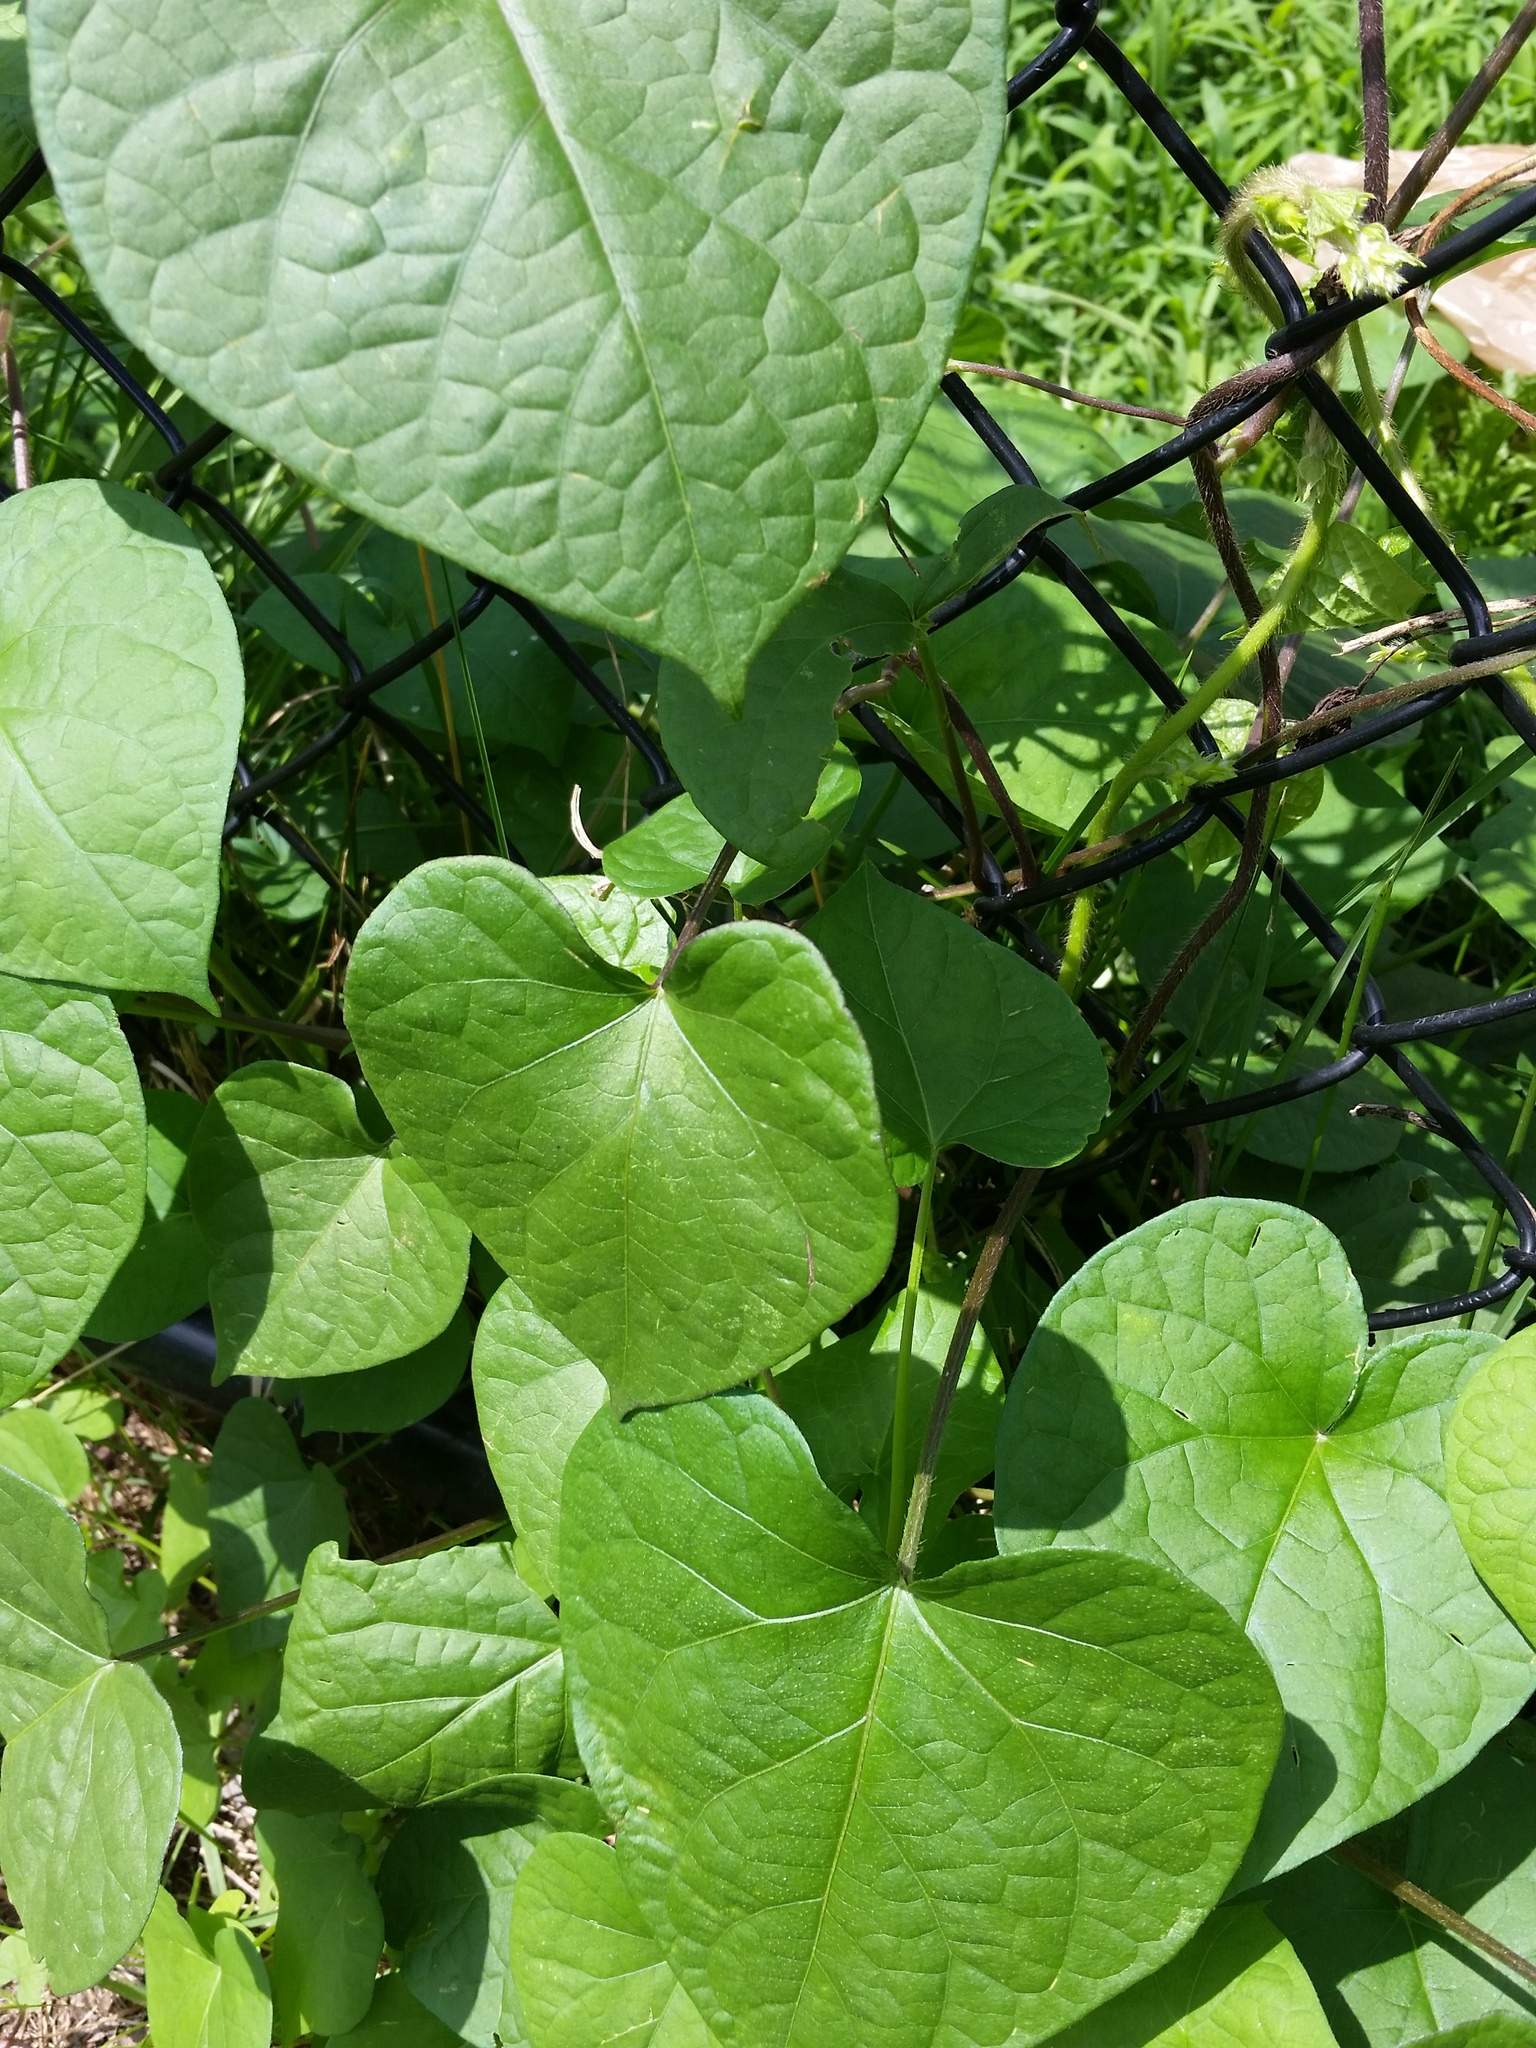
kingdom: Plantae
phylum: Tracheophyta
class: Magnoliopsida
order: Solanales
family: Convolvulaceae
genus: Ipomoea
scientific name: Ipomoea purpurea
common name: Common morning-glory
